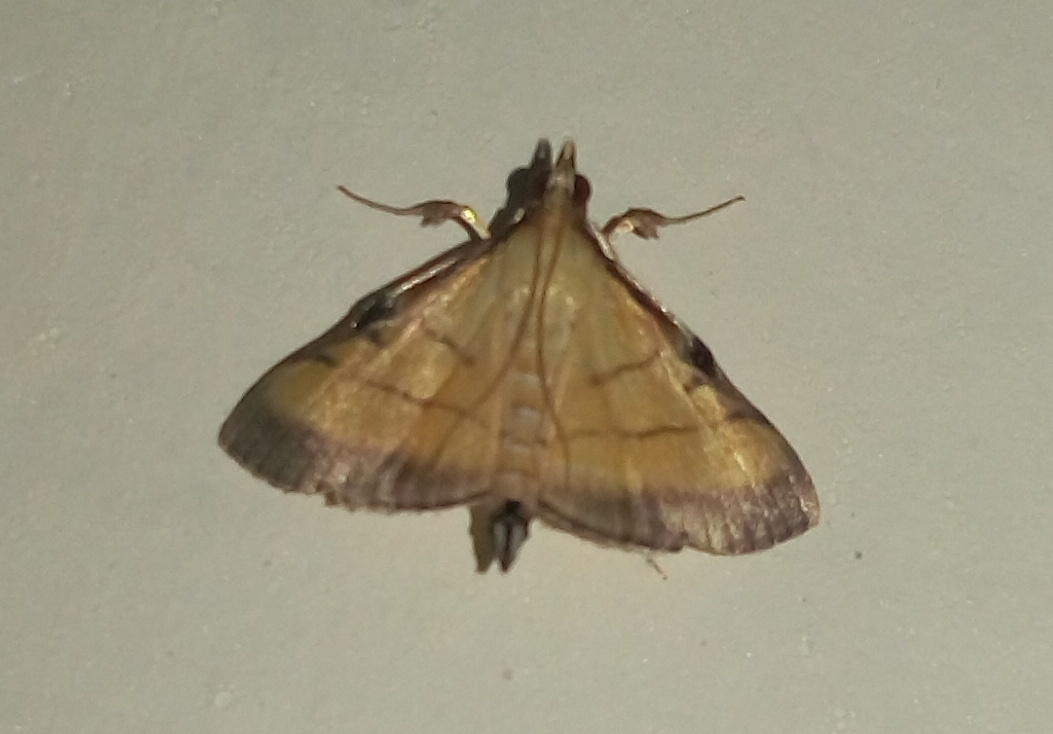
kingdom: Animalia
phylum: Arthropoda
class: Insecta
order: Lepidoptera
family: Crambidae
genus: Cnaphalocrocis
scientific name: Cnaphalocrocis medinalis
